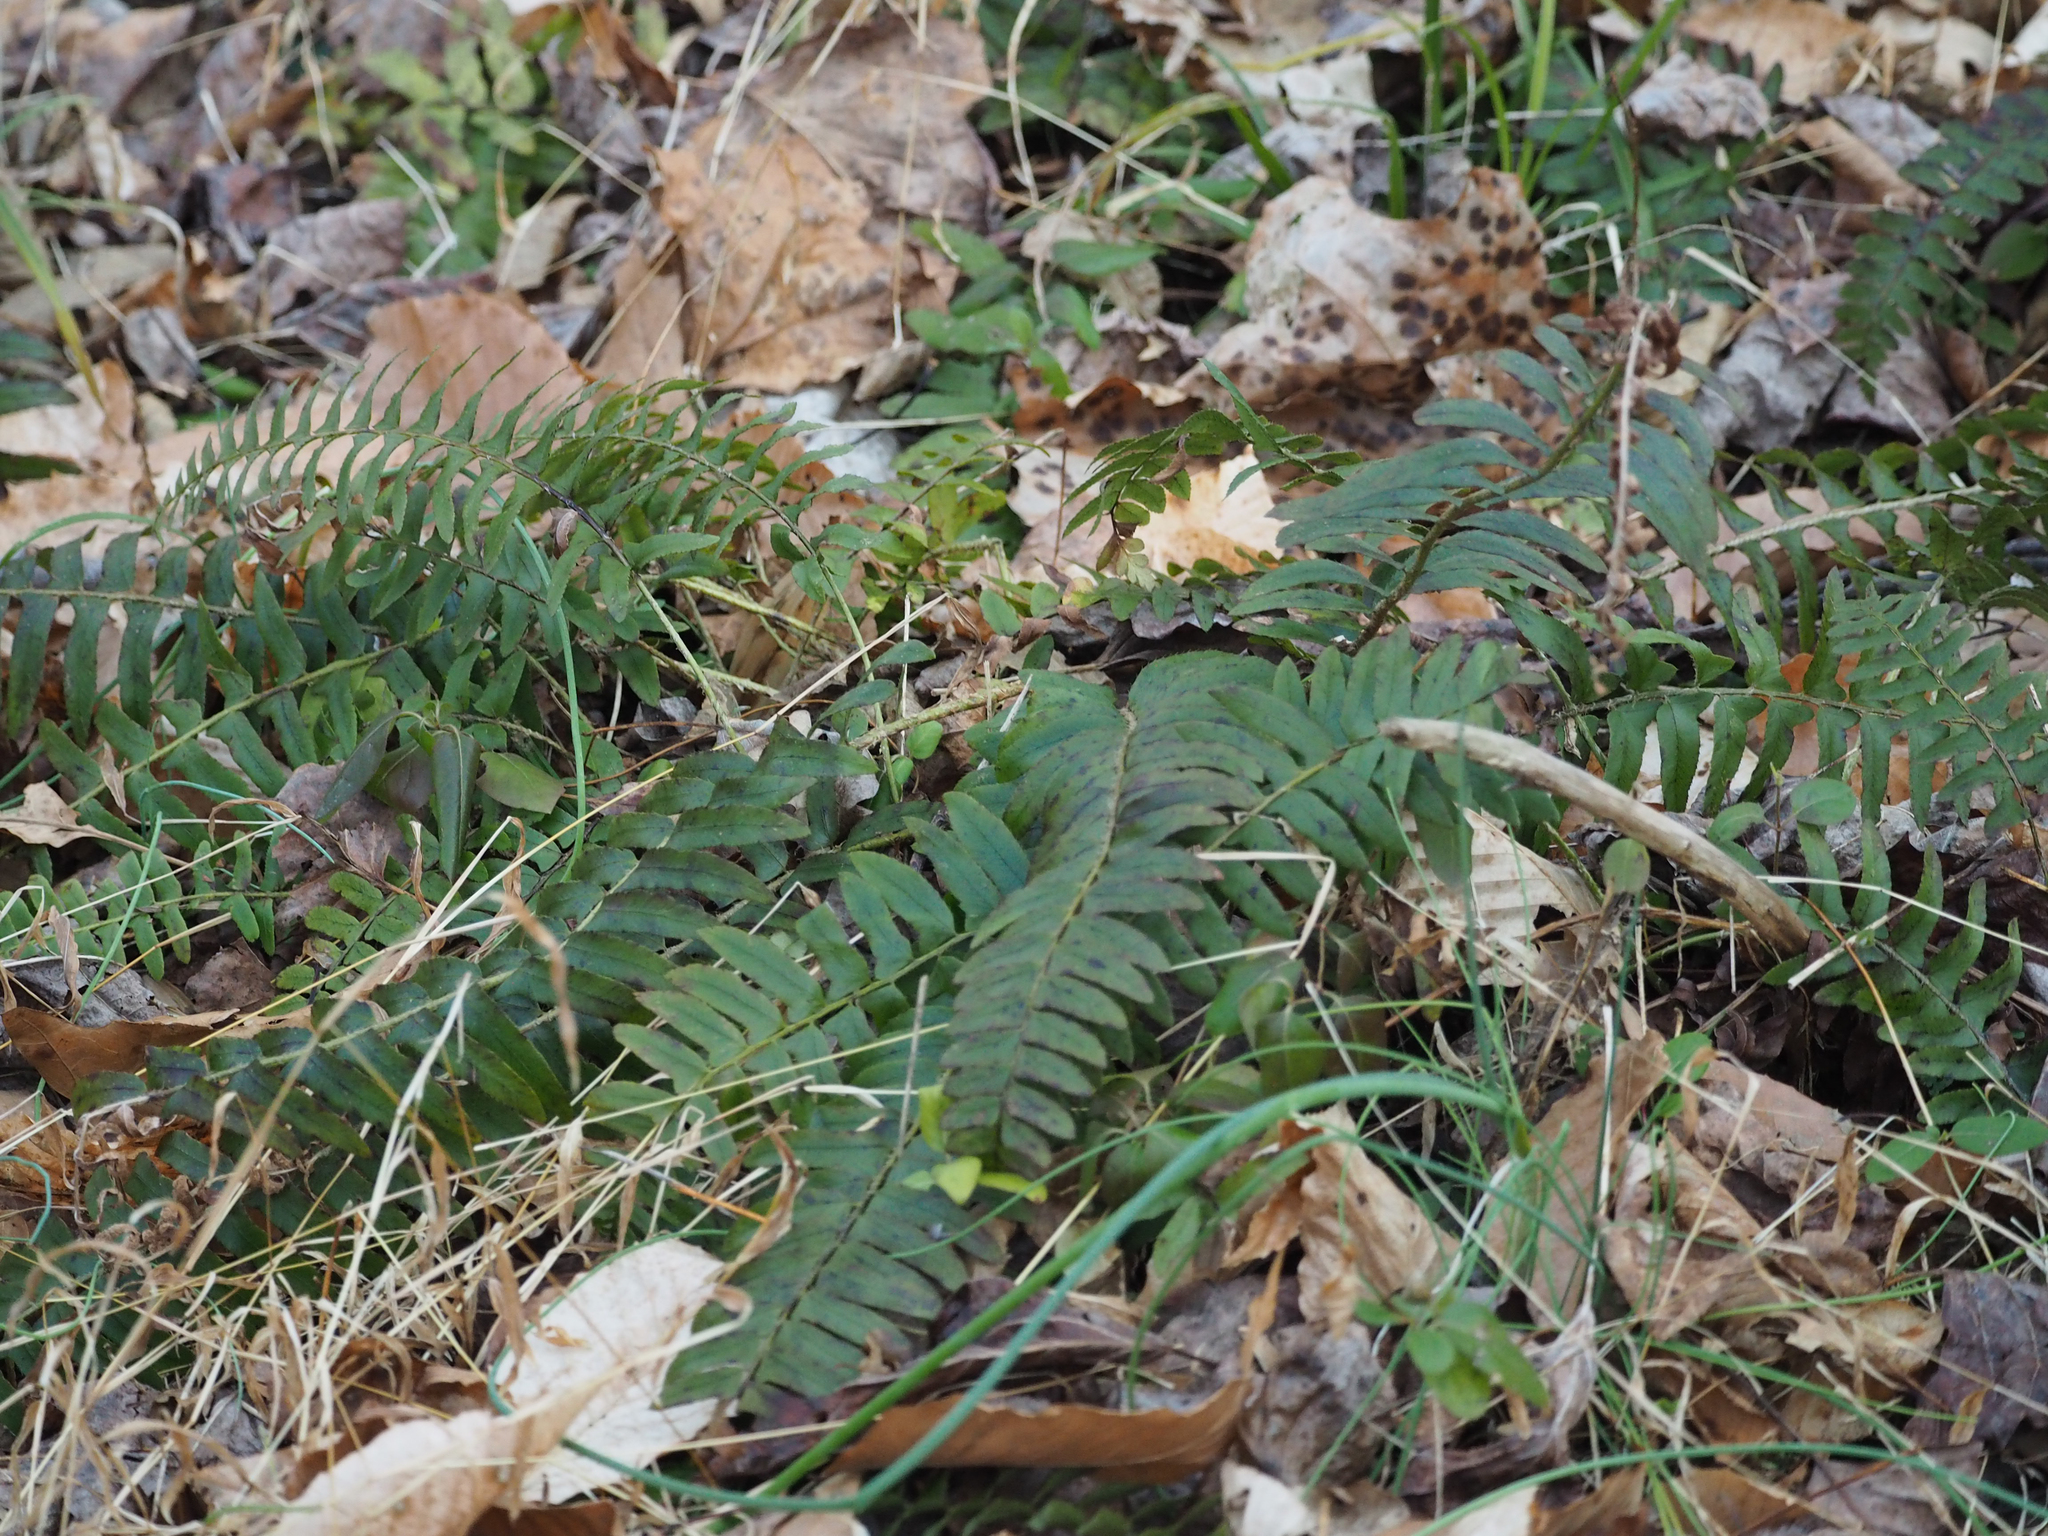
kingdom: Plantae
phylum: Tracheophyta
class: Polypodiopsida
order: Polypodiales
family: Dryopteridaceae
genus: Polystichum
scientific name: Polystichum acrostichoides
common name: Christmas fern
